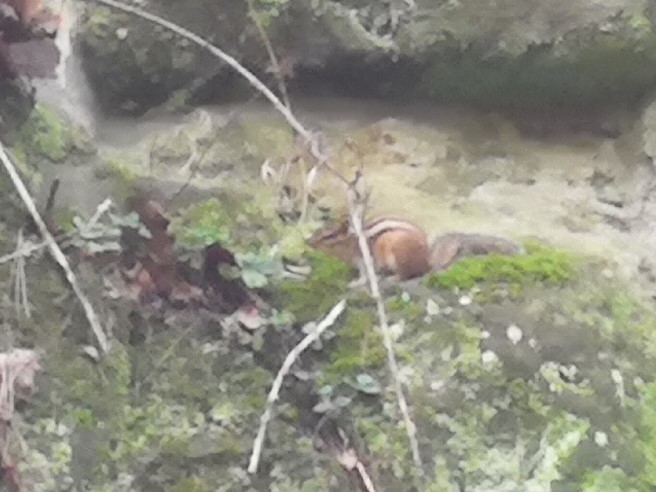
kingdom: Animalia
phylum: Chordata
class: Mammalia
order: Rodentia
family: Sciuridae
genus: Tamias
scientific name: Tamias sibiricus
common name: Siberian chipmunk
